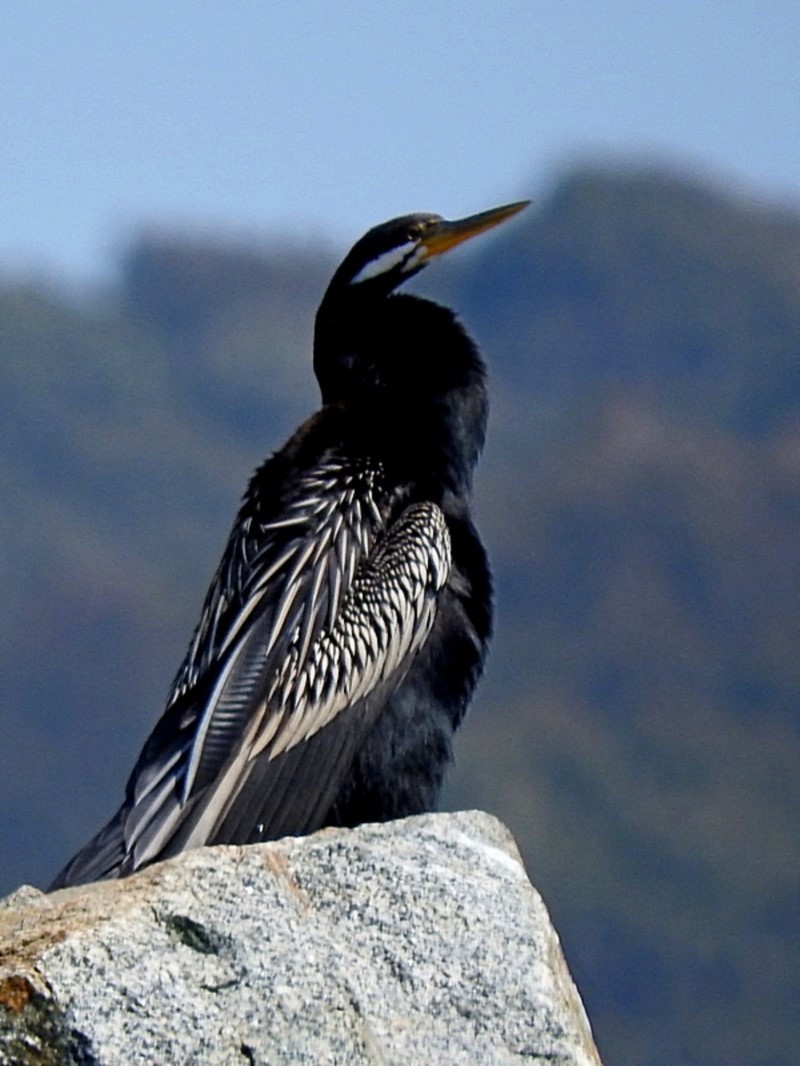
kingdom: Animalia
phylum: Chordata
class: Aves
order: Suliformes
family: Anhingidae
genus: Anhinga
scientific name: Anhinga novaehollandiae
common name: Australasian darter
